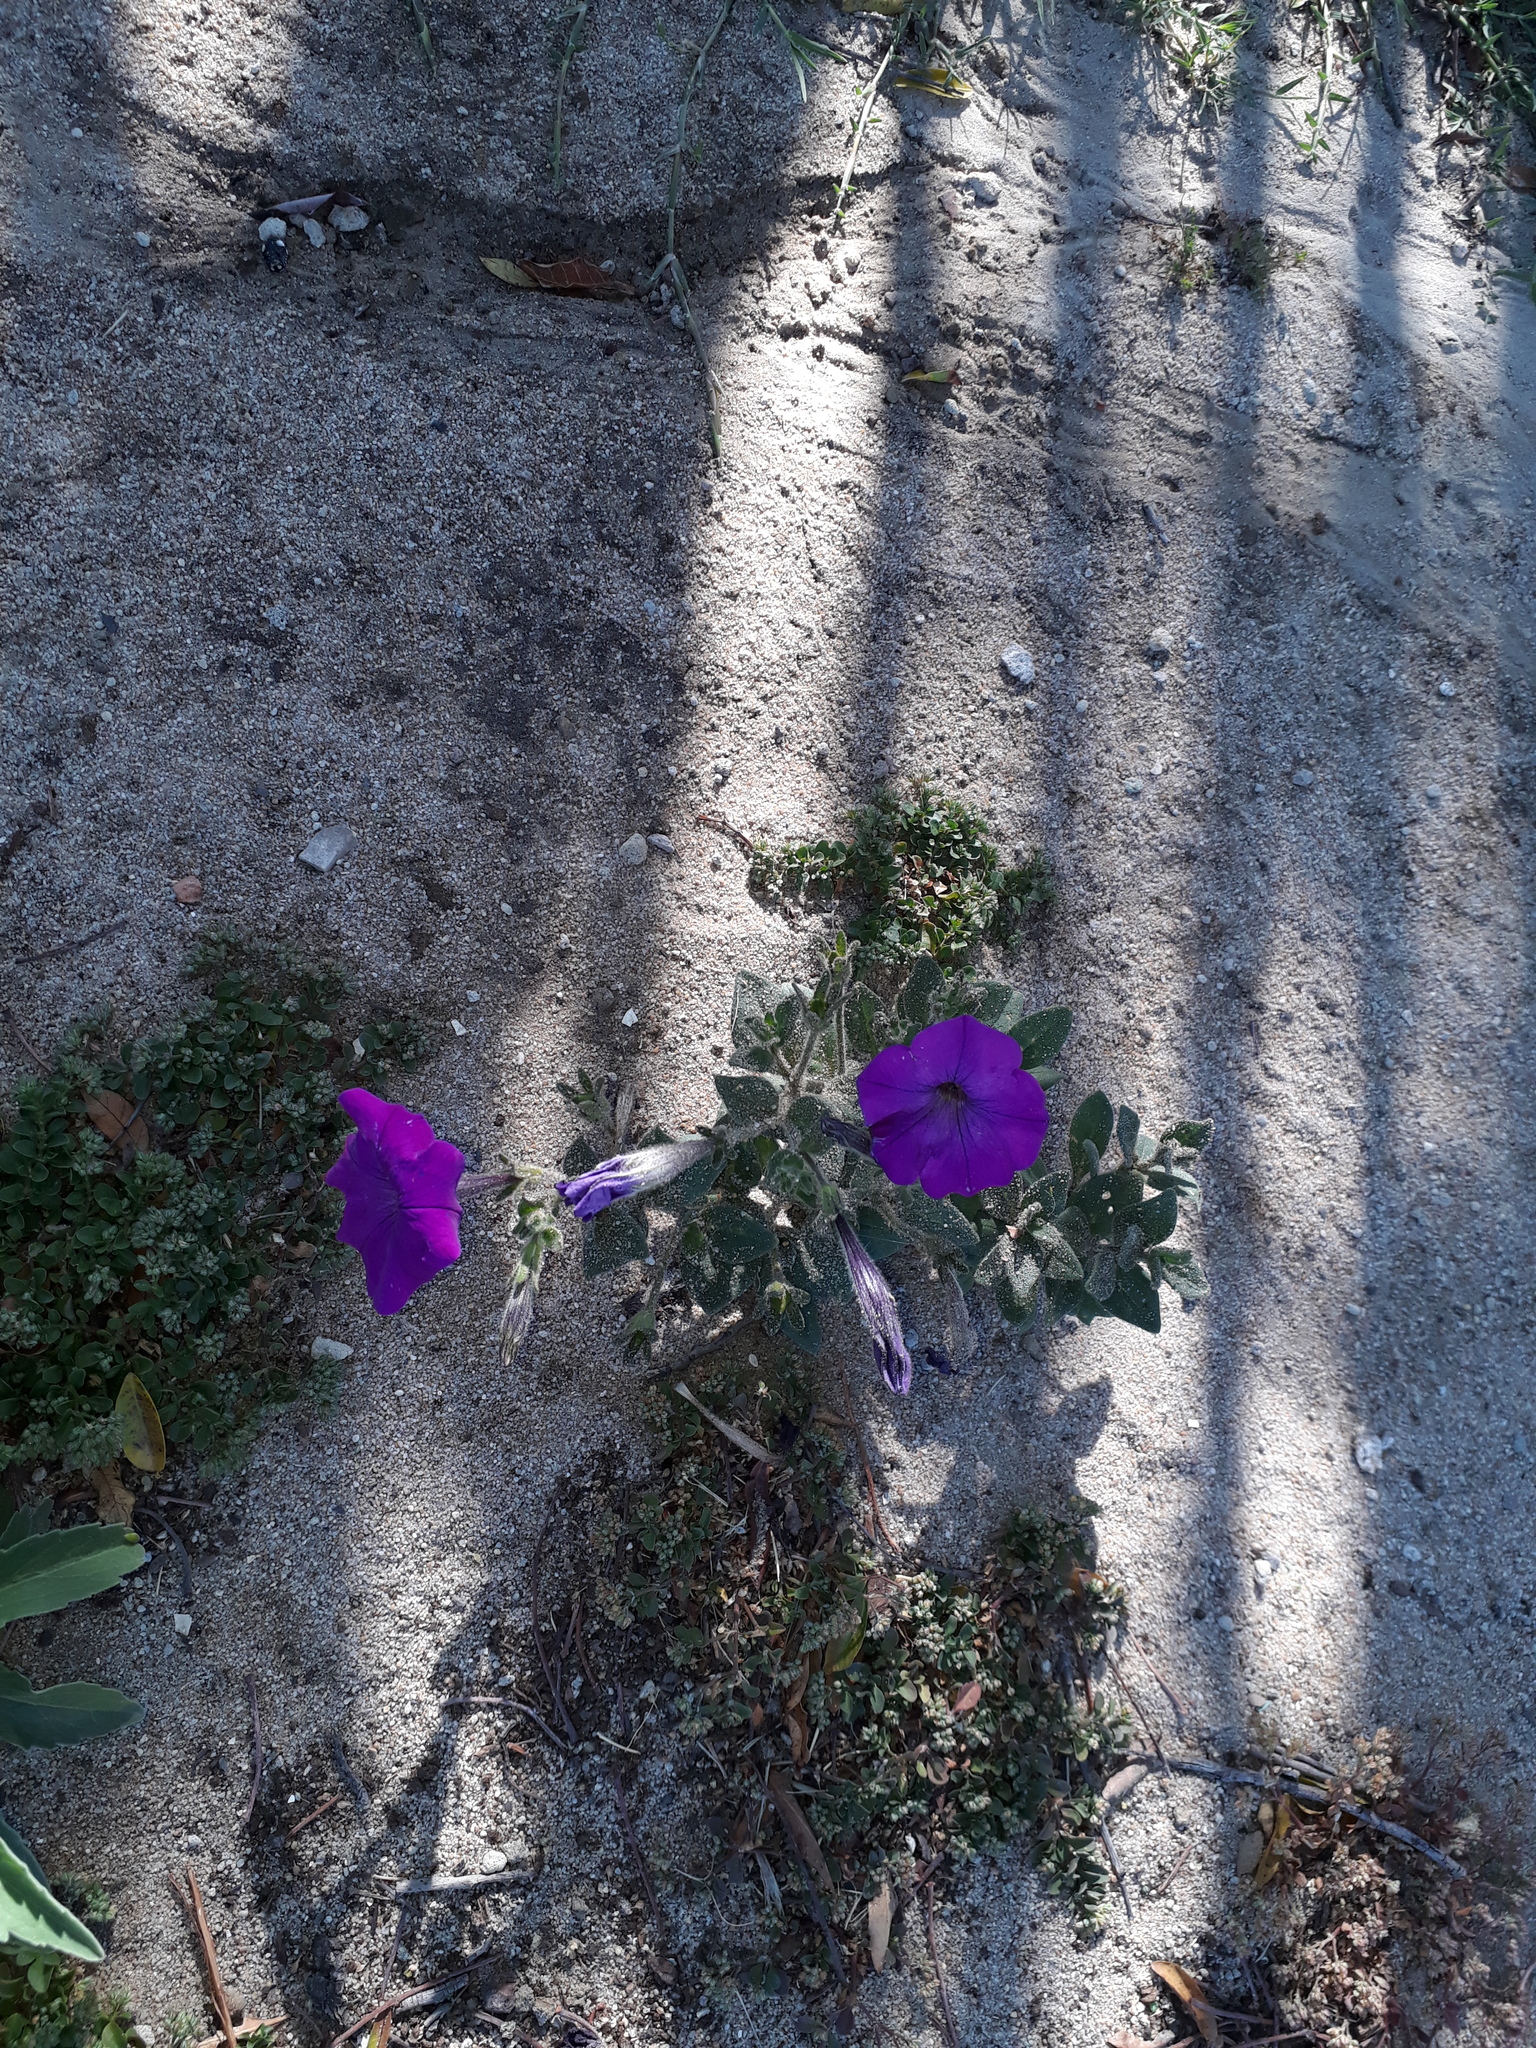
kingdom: Plantae
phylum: Tracheophyta
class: Magnoliopsida
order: Solanales
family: Solanaceae
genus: Petunia
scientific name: Petunia atkinsiana
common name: Petunia
